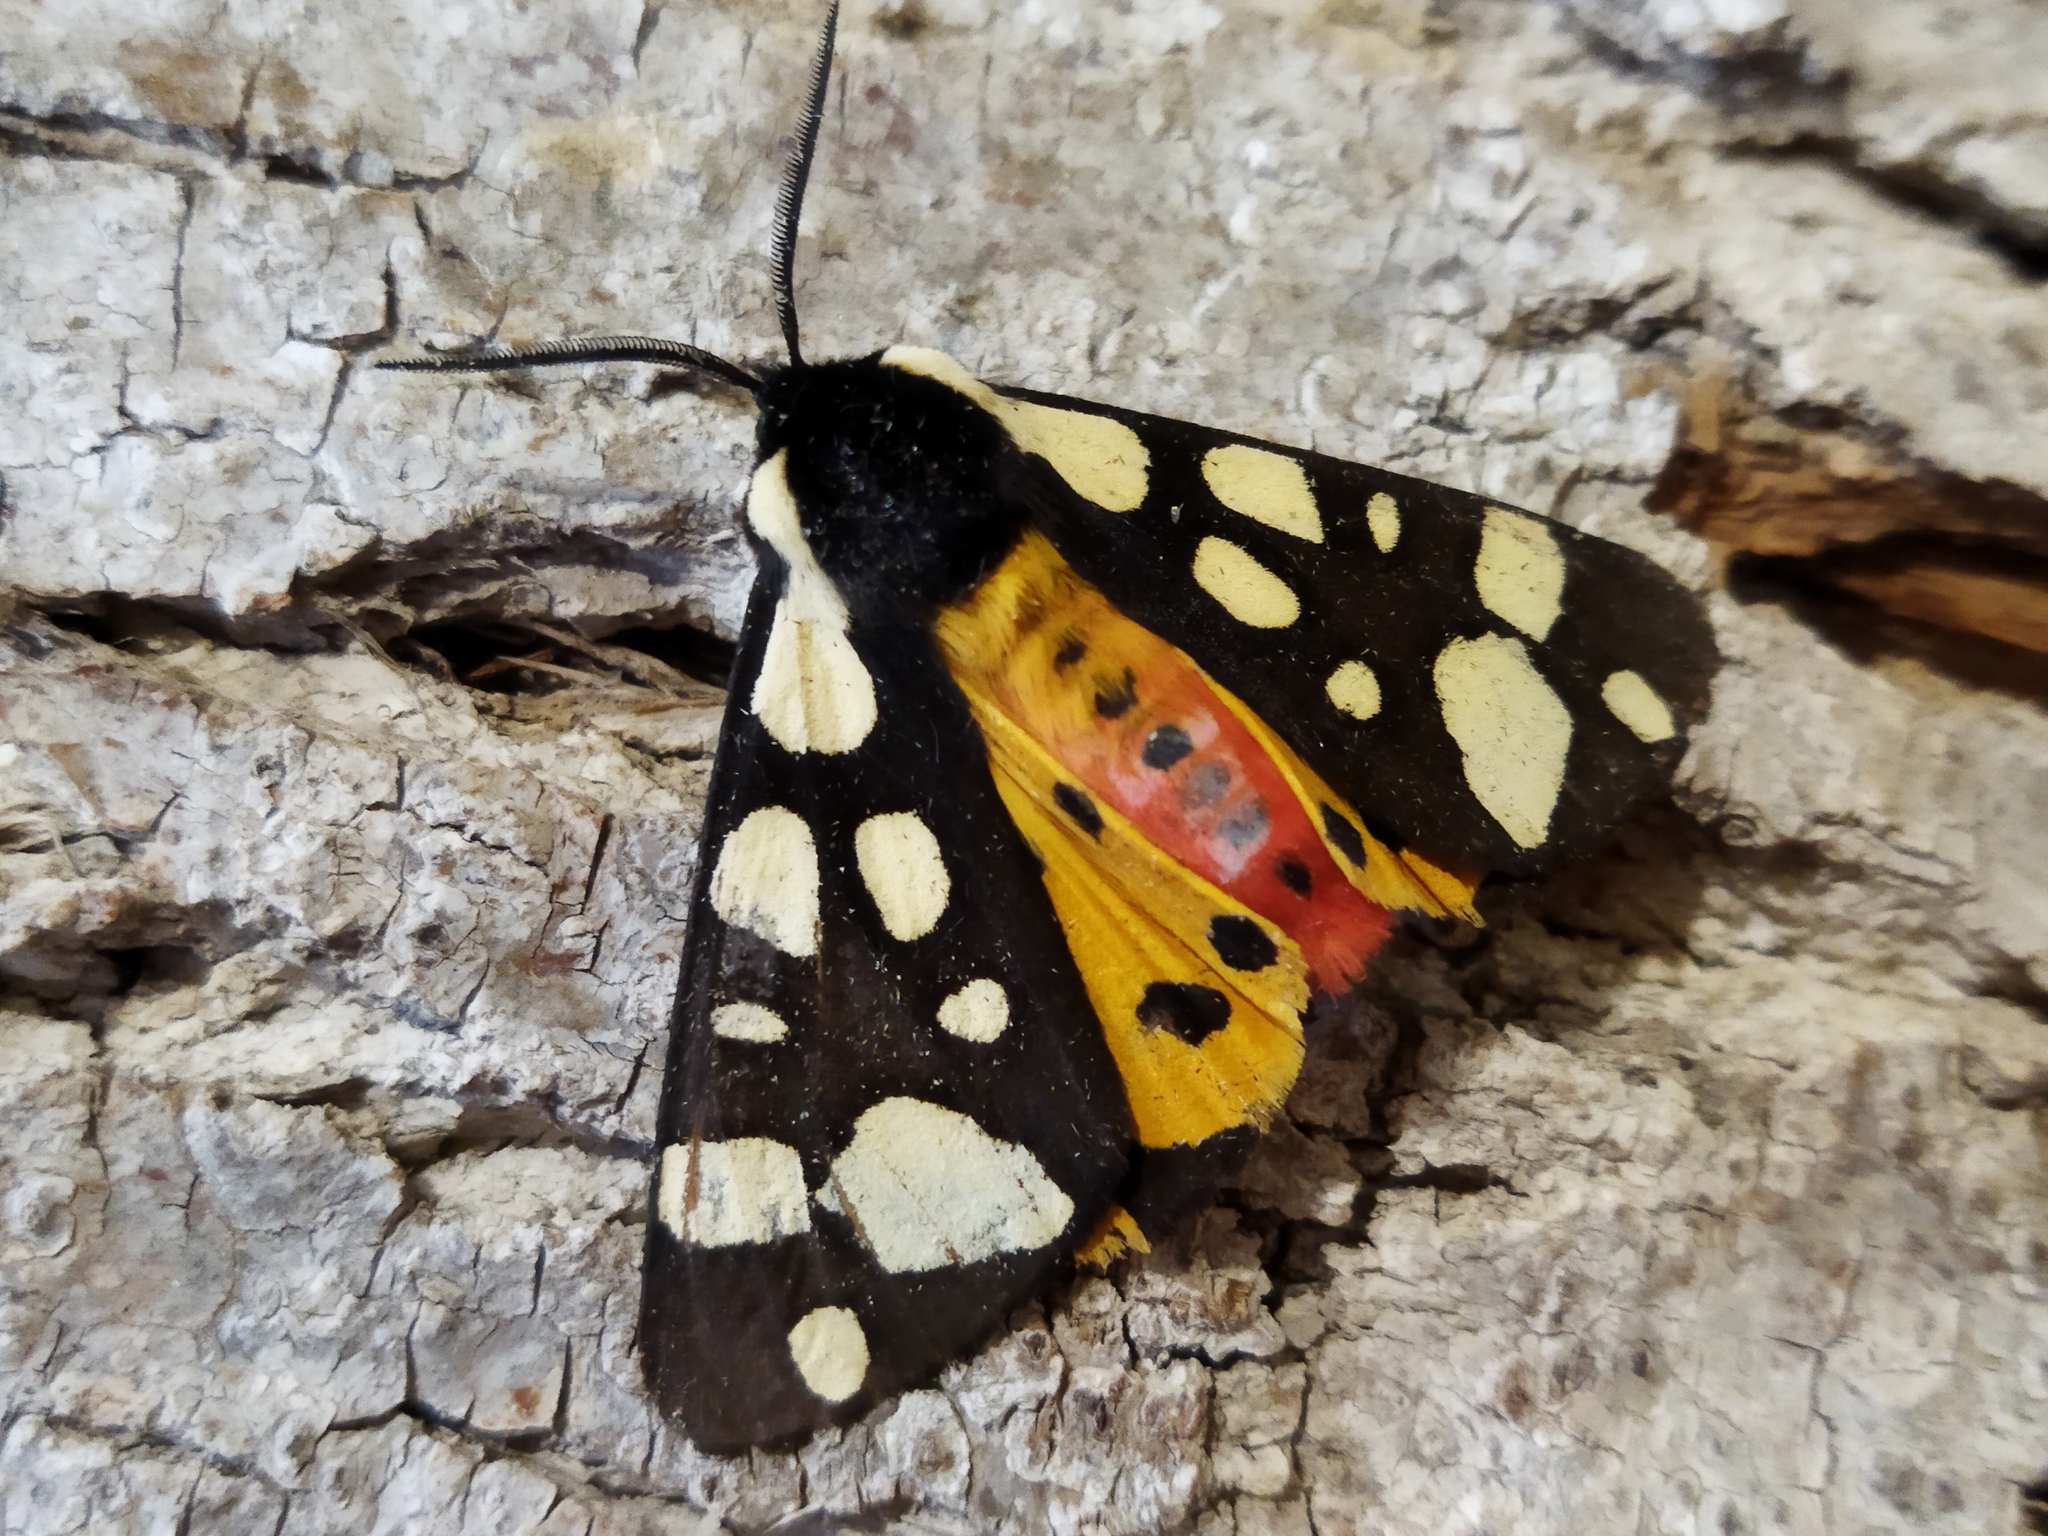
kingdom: Animalia
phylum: Arthropoda
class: Insecta
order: Lepidoptera
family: Erebidae
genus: Epicallia
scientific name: Epicallia villica
